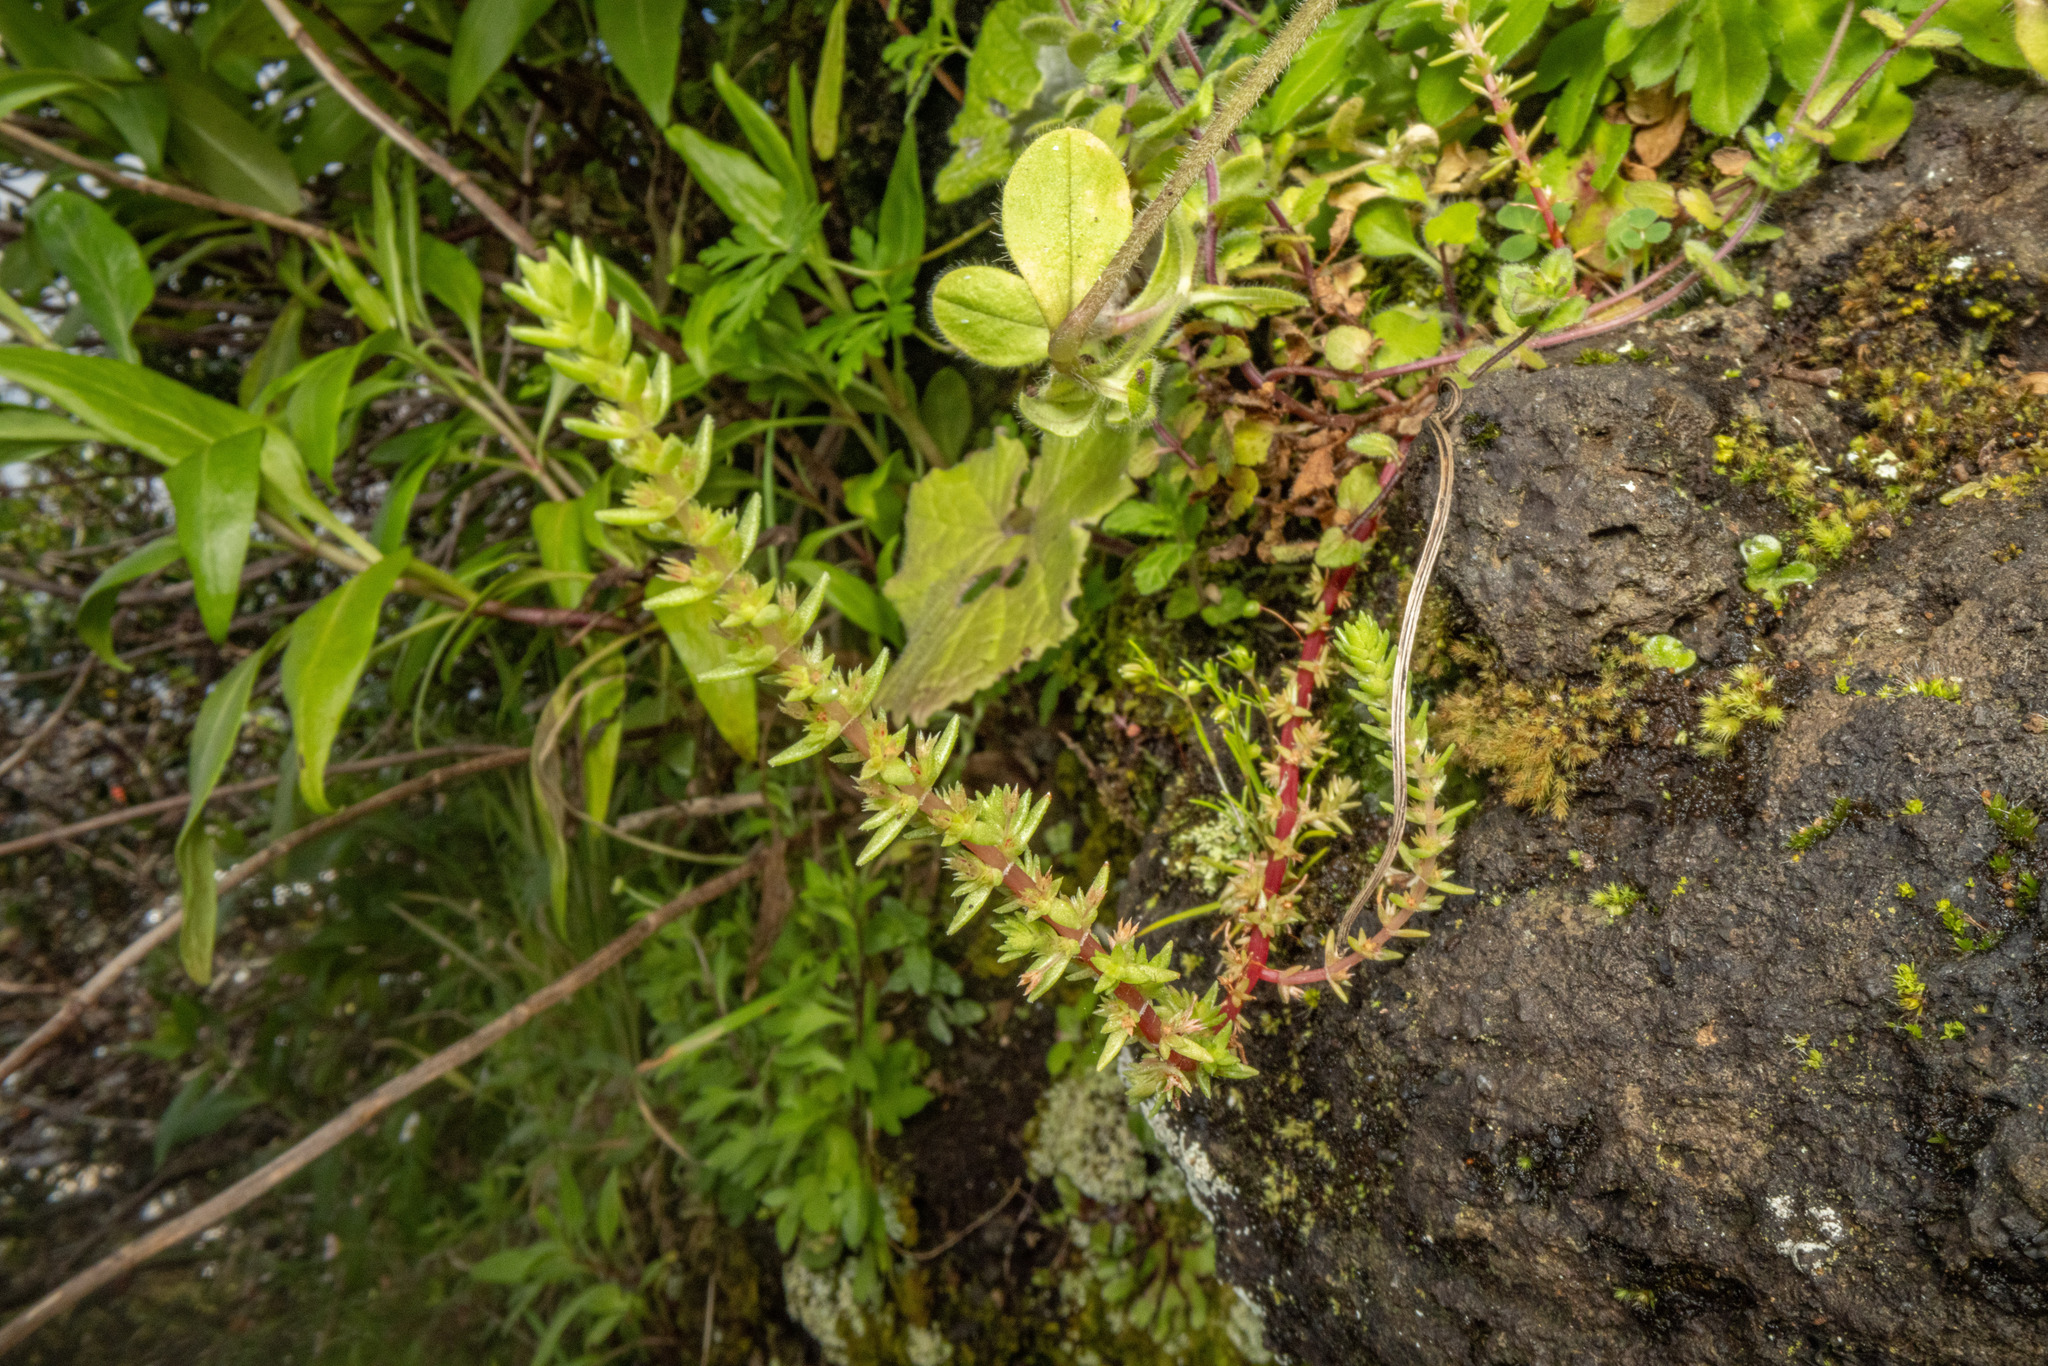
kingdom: Plantae
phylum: Tracheophyta
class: Magnoliopsida
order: Saxifragales
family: Crassulaceae
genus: Crassula
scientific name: Crassula colligata
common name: Pygmyweed
